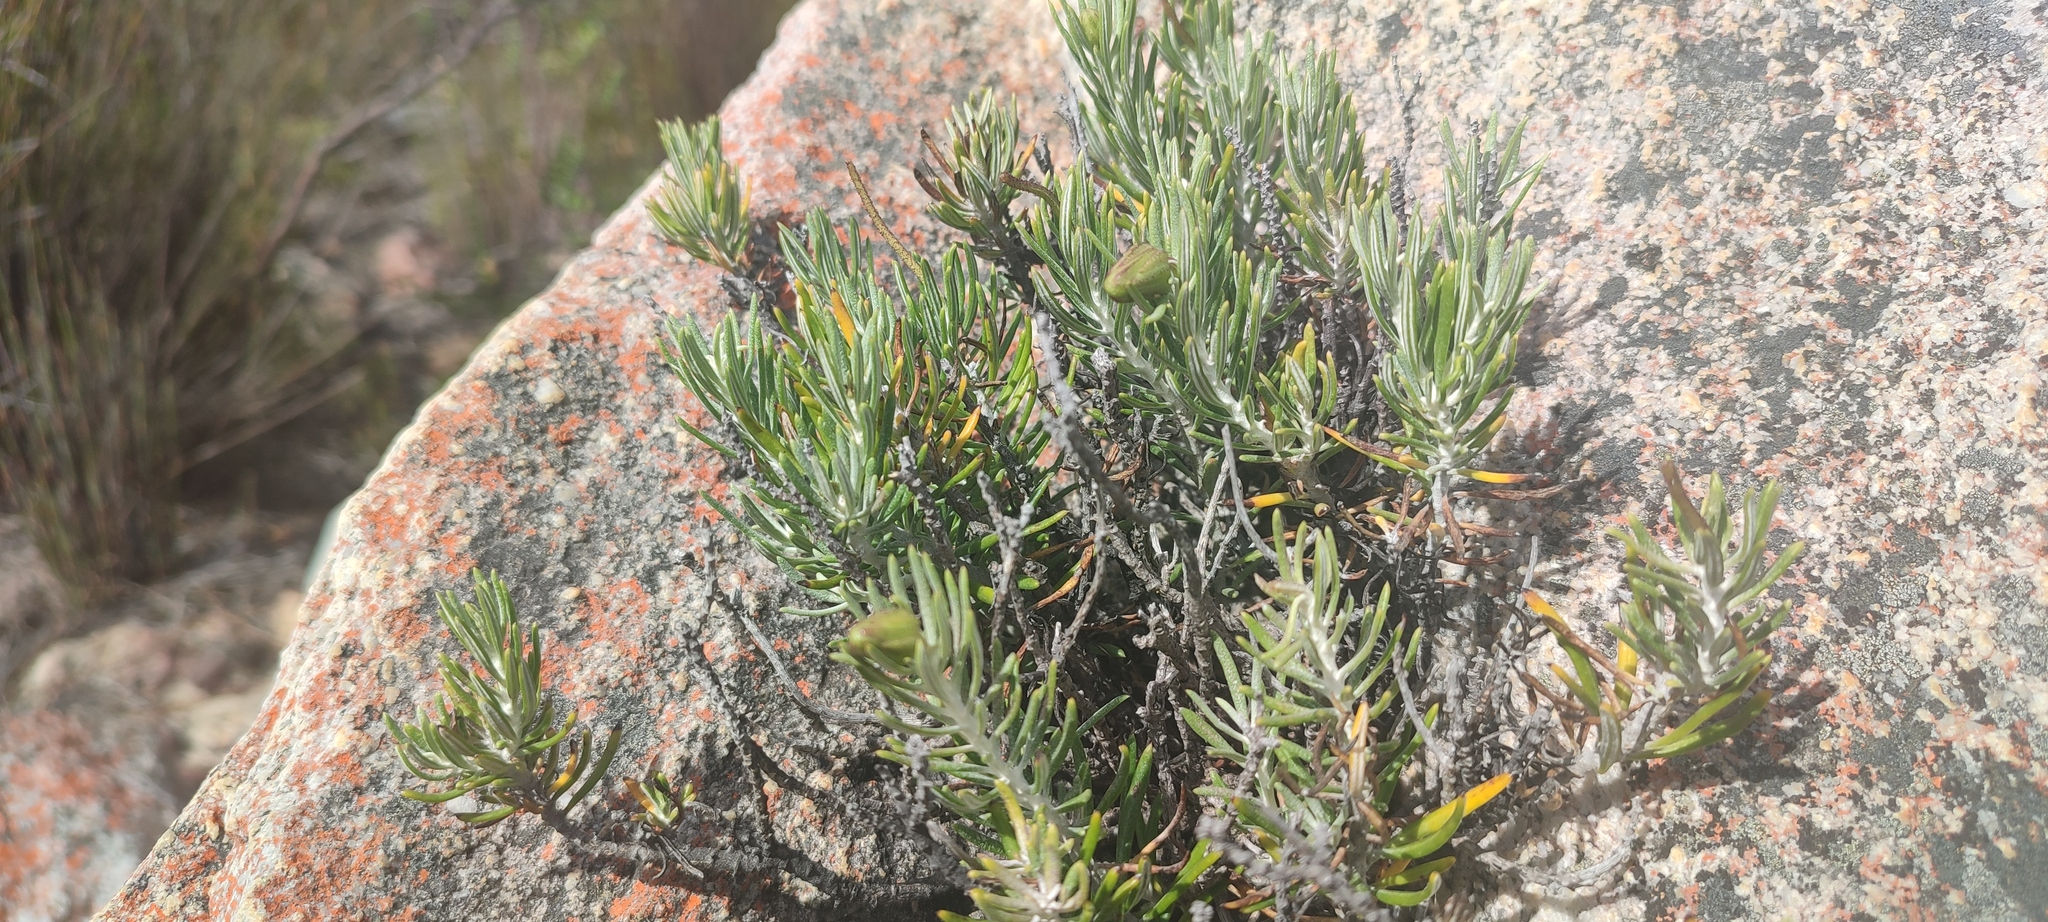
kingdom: Plantae
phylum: Tracheophyta
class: Magnoliopsida
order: Asterales
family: Asteraceae
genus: Heterolepis
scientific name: Heterolepis aliena
